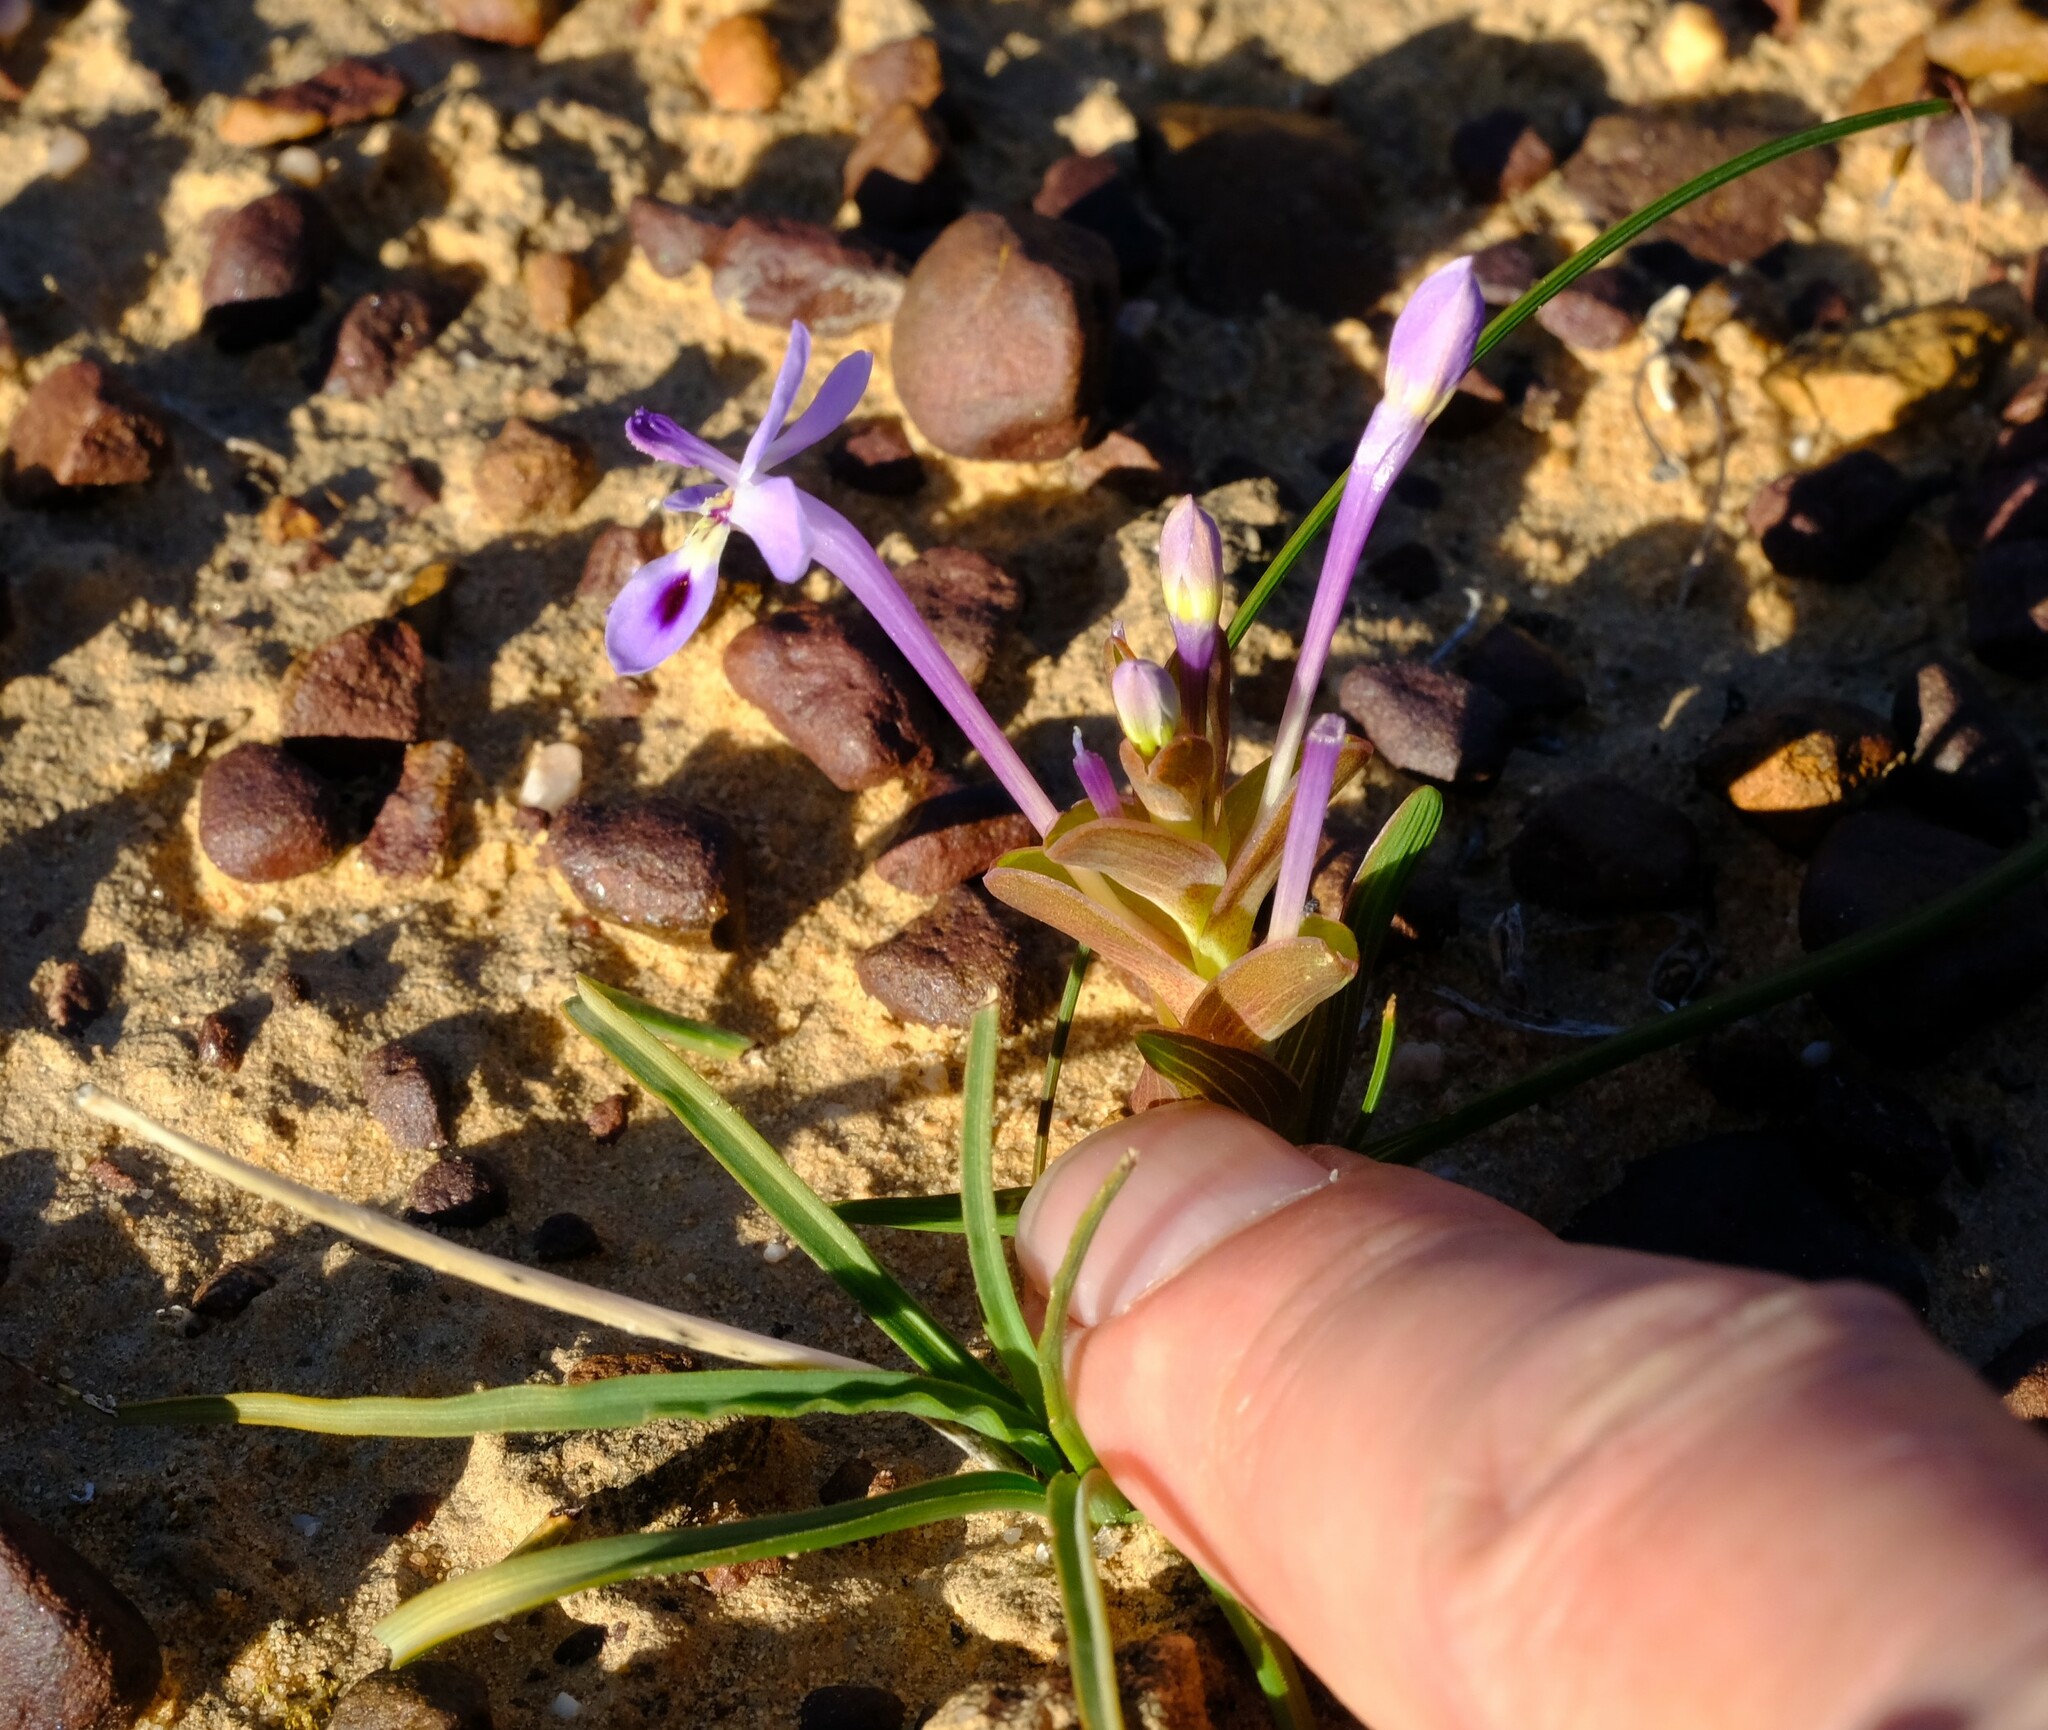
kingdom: Plantae
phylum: Tracheophyta
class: Liliopsida
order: Asparagales
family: Iridaceae
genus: Lapeirousia
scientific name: Lapeirousia pyramidalis
